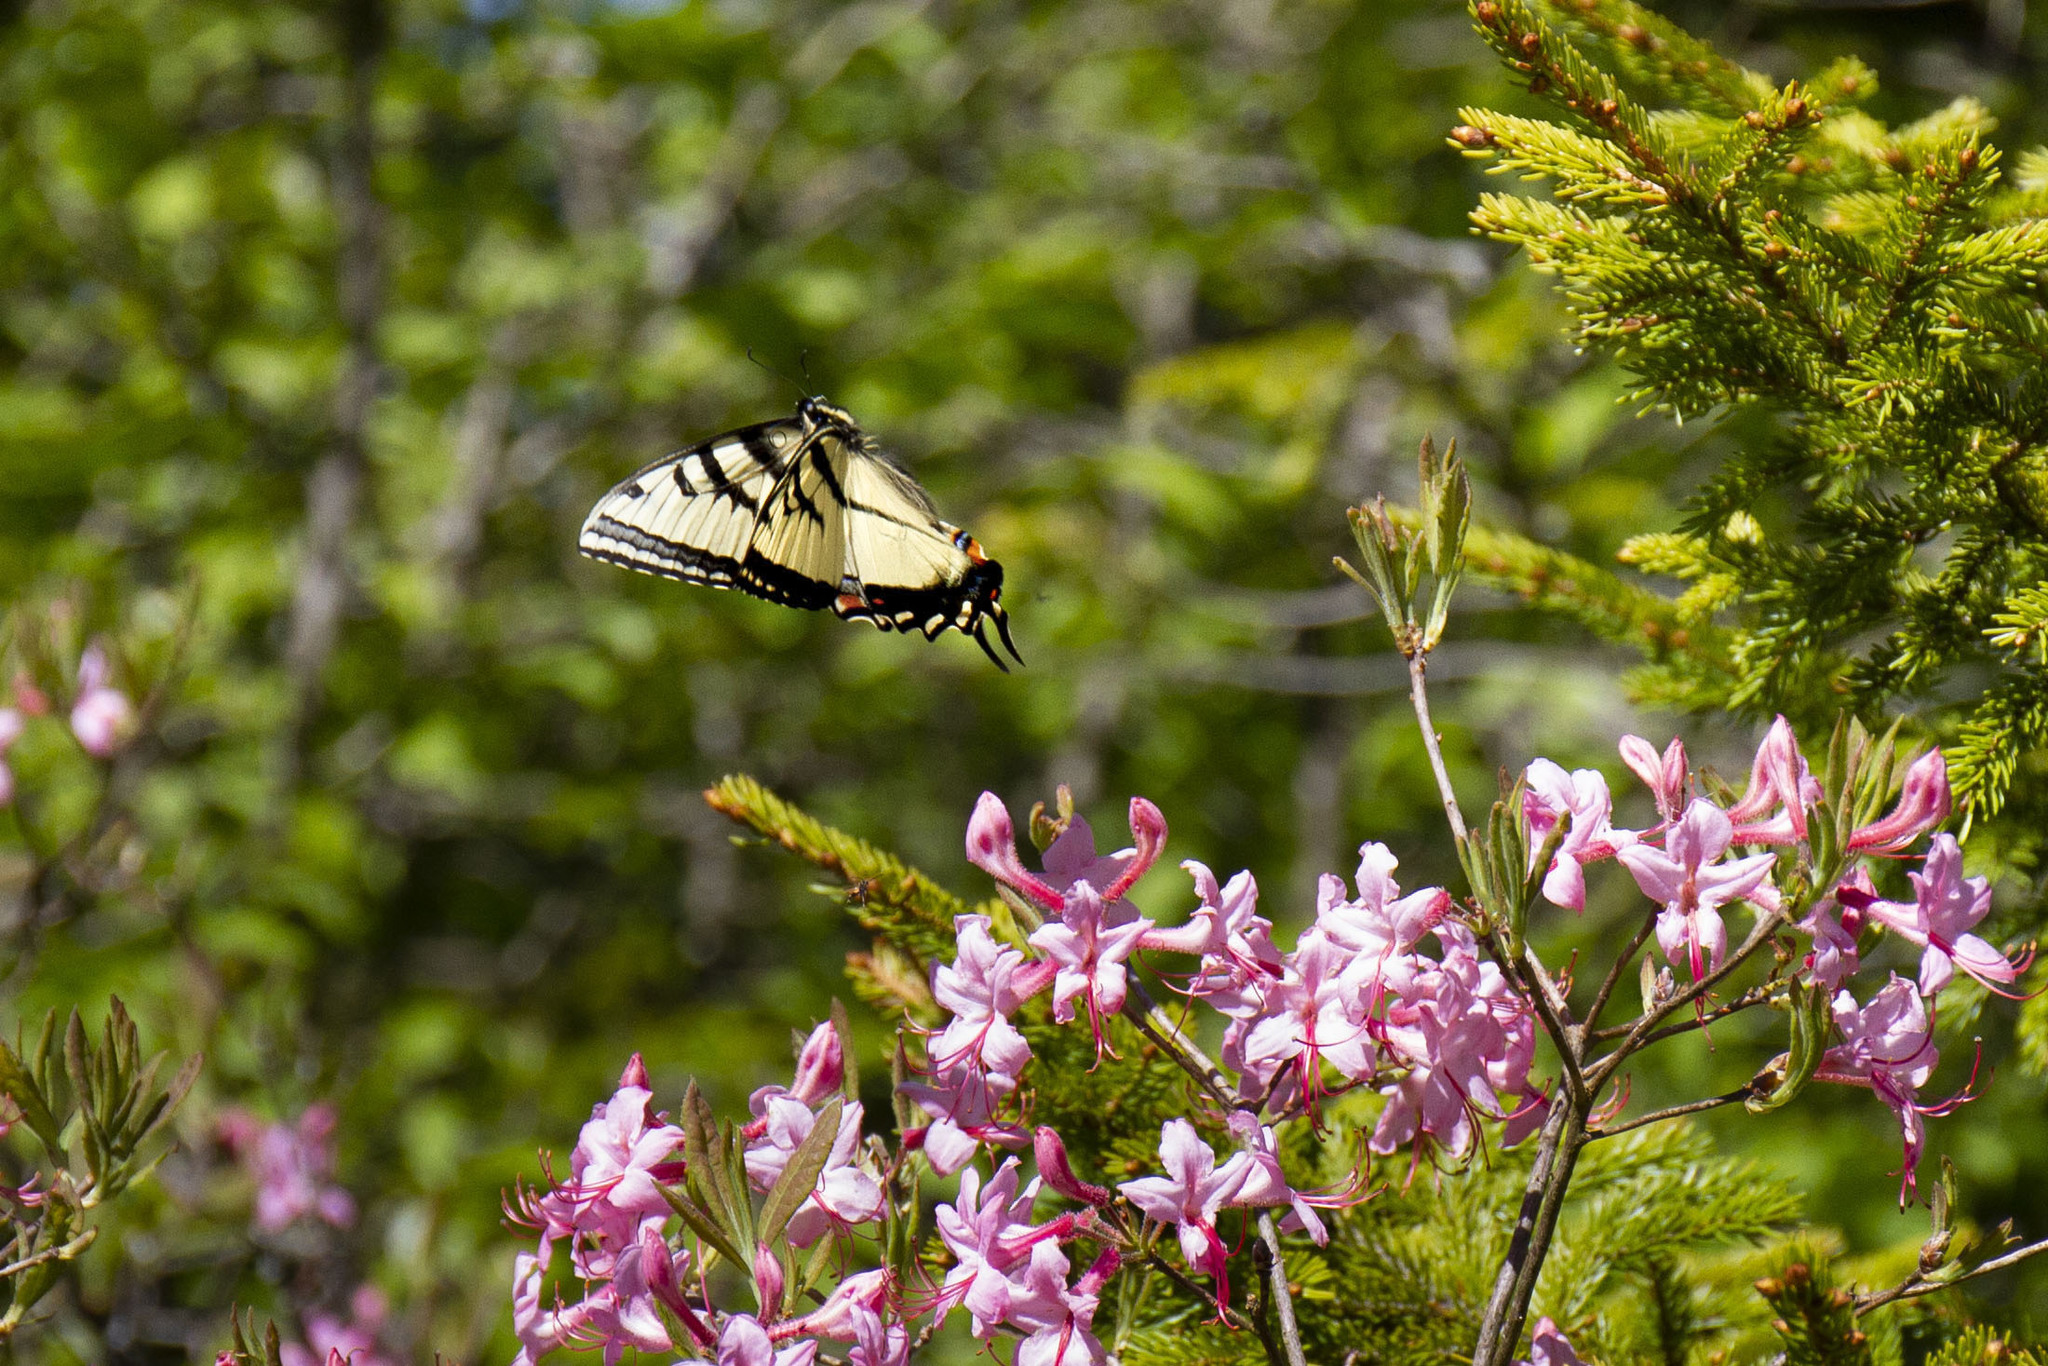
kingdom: Animalia
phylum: Arthropoda
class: Insecta
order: Lepidoptera
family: Papilionidae
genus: Papilio
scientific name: Papilio appalachiensis
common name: Appalachian tiger swallowtail
